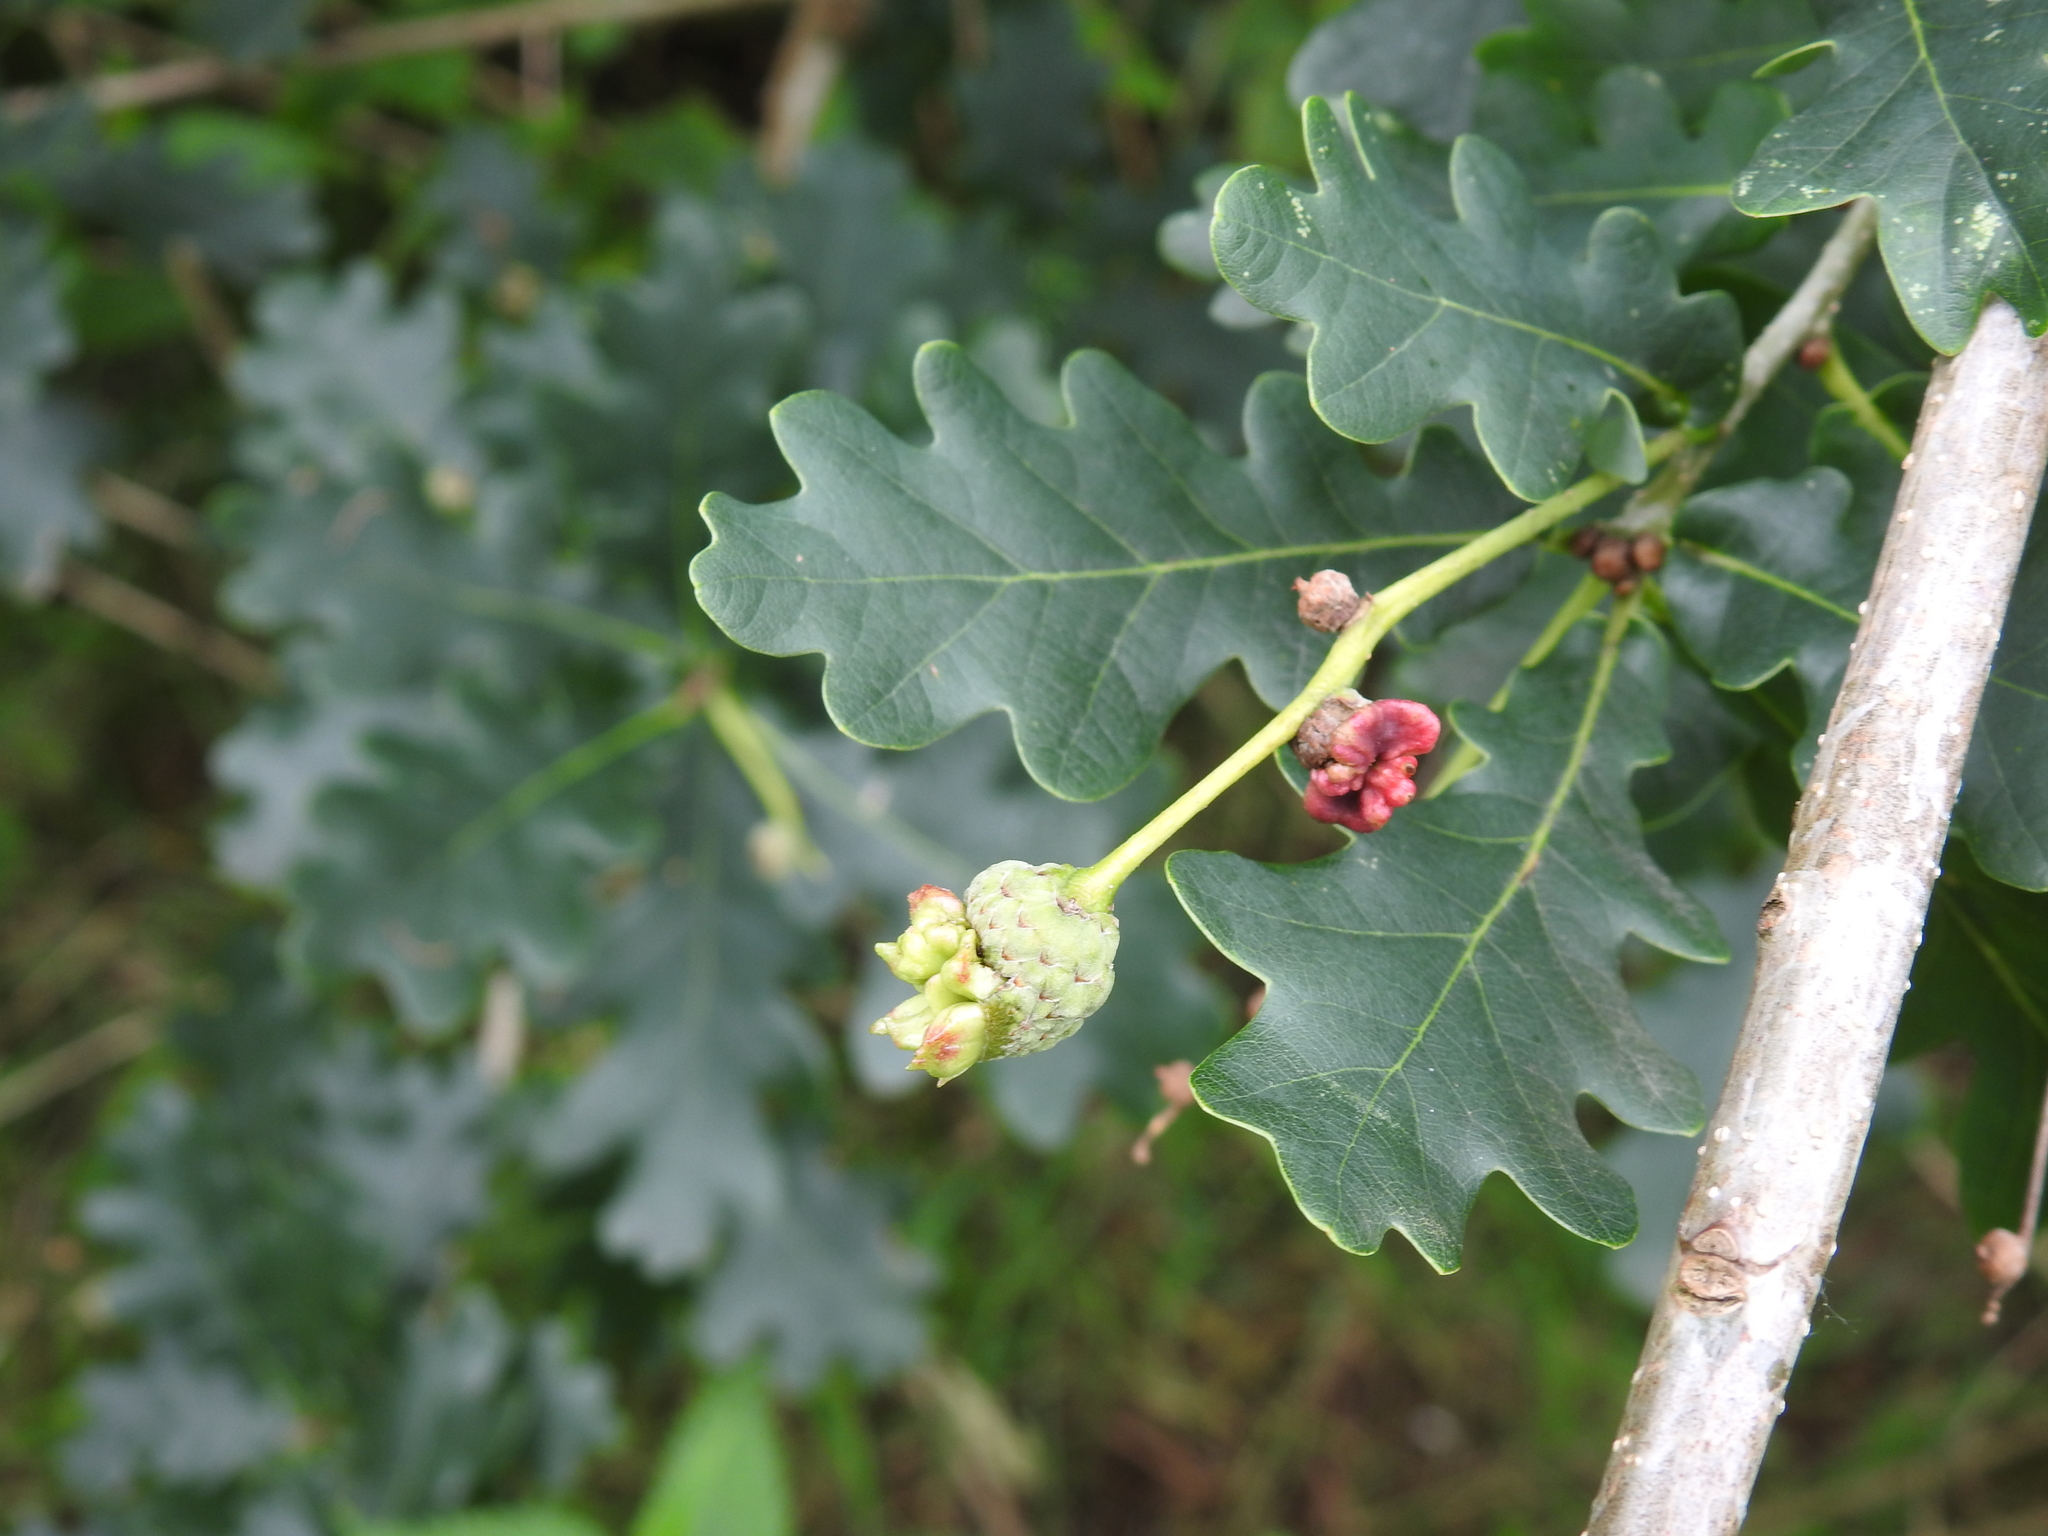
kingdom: Animalia
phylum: Arthropoda
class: Insecta
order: Hymenoptera
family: Cynipidae
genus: Andricus
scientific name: Andricus quercuscalicis
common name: Knopper gall
